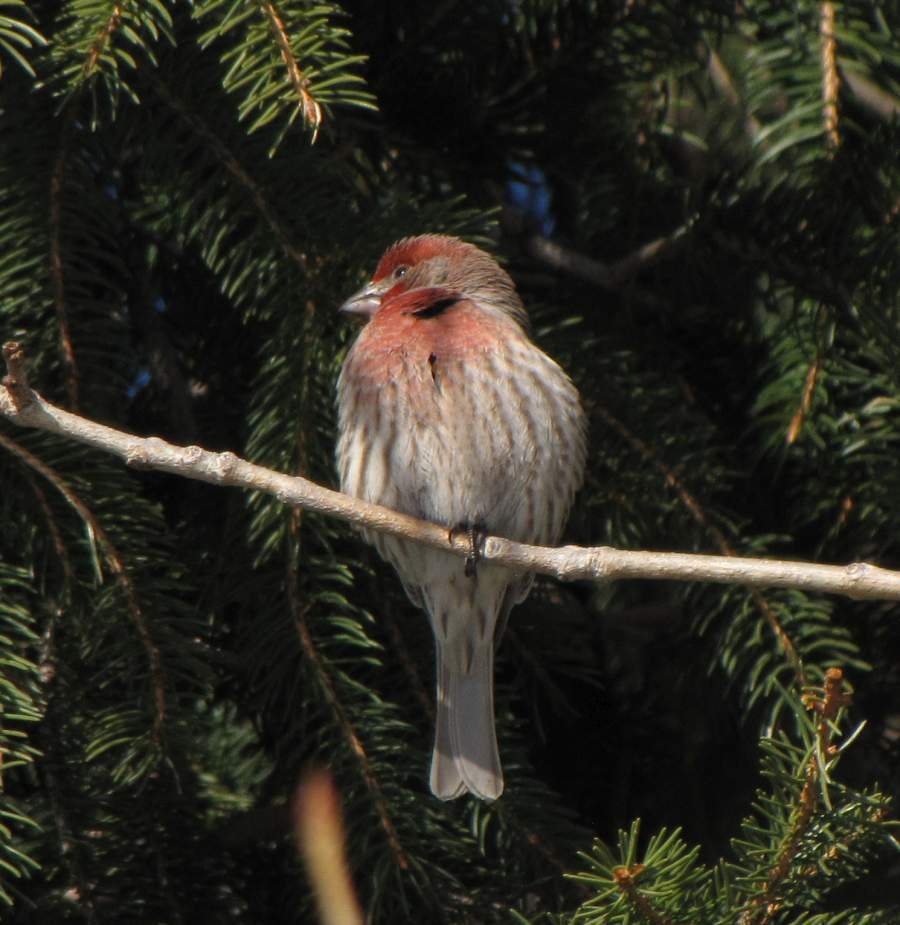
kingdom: Animalia
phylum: Chordata
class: Aves
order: Passeriformes
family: Fringillidae
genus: Haemorhous
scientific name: Haemorhous mexicanus
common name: House finch
